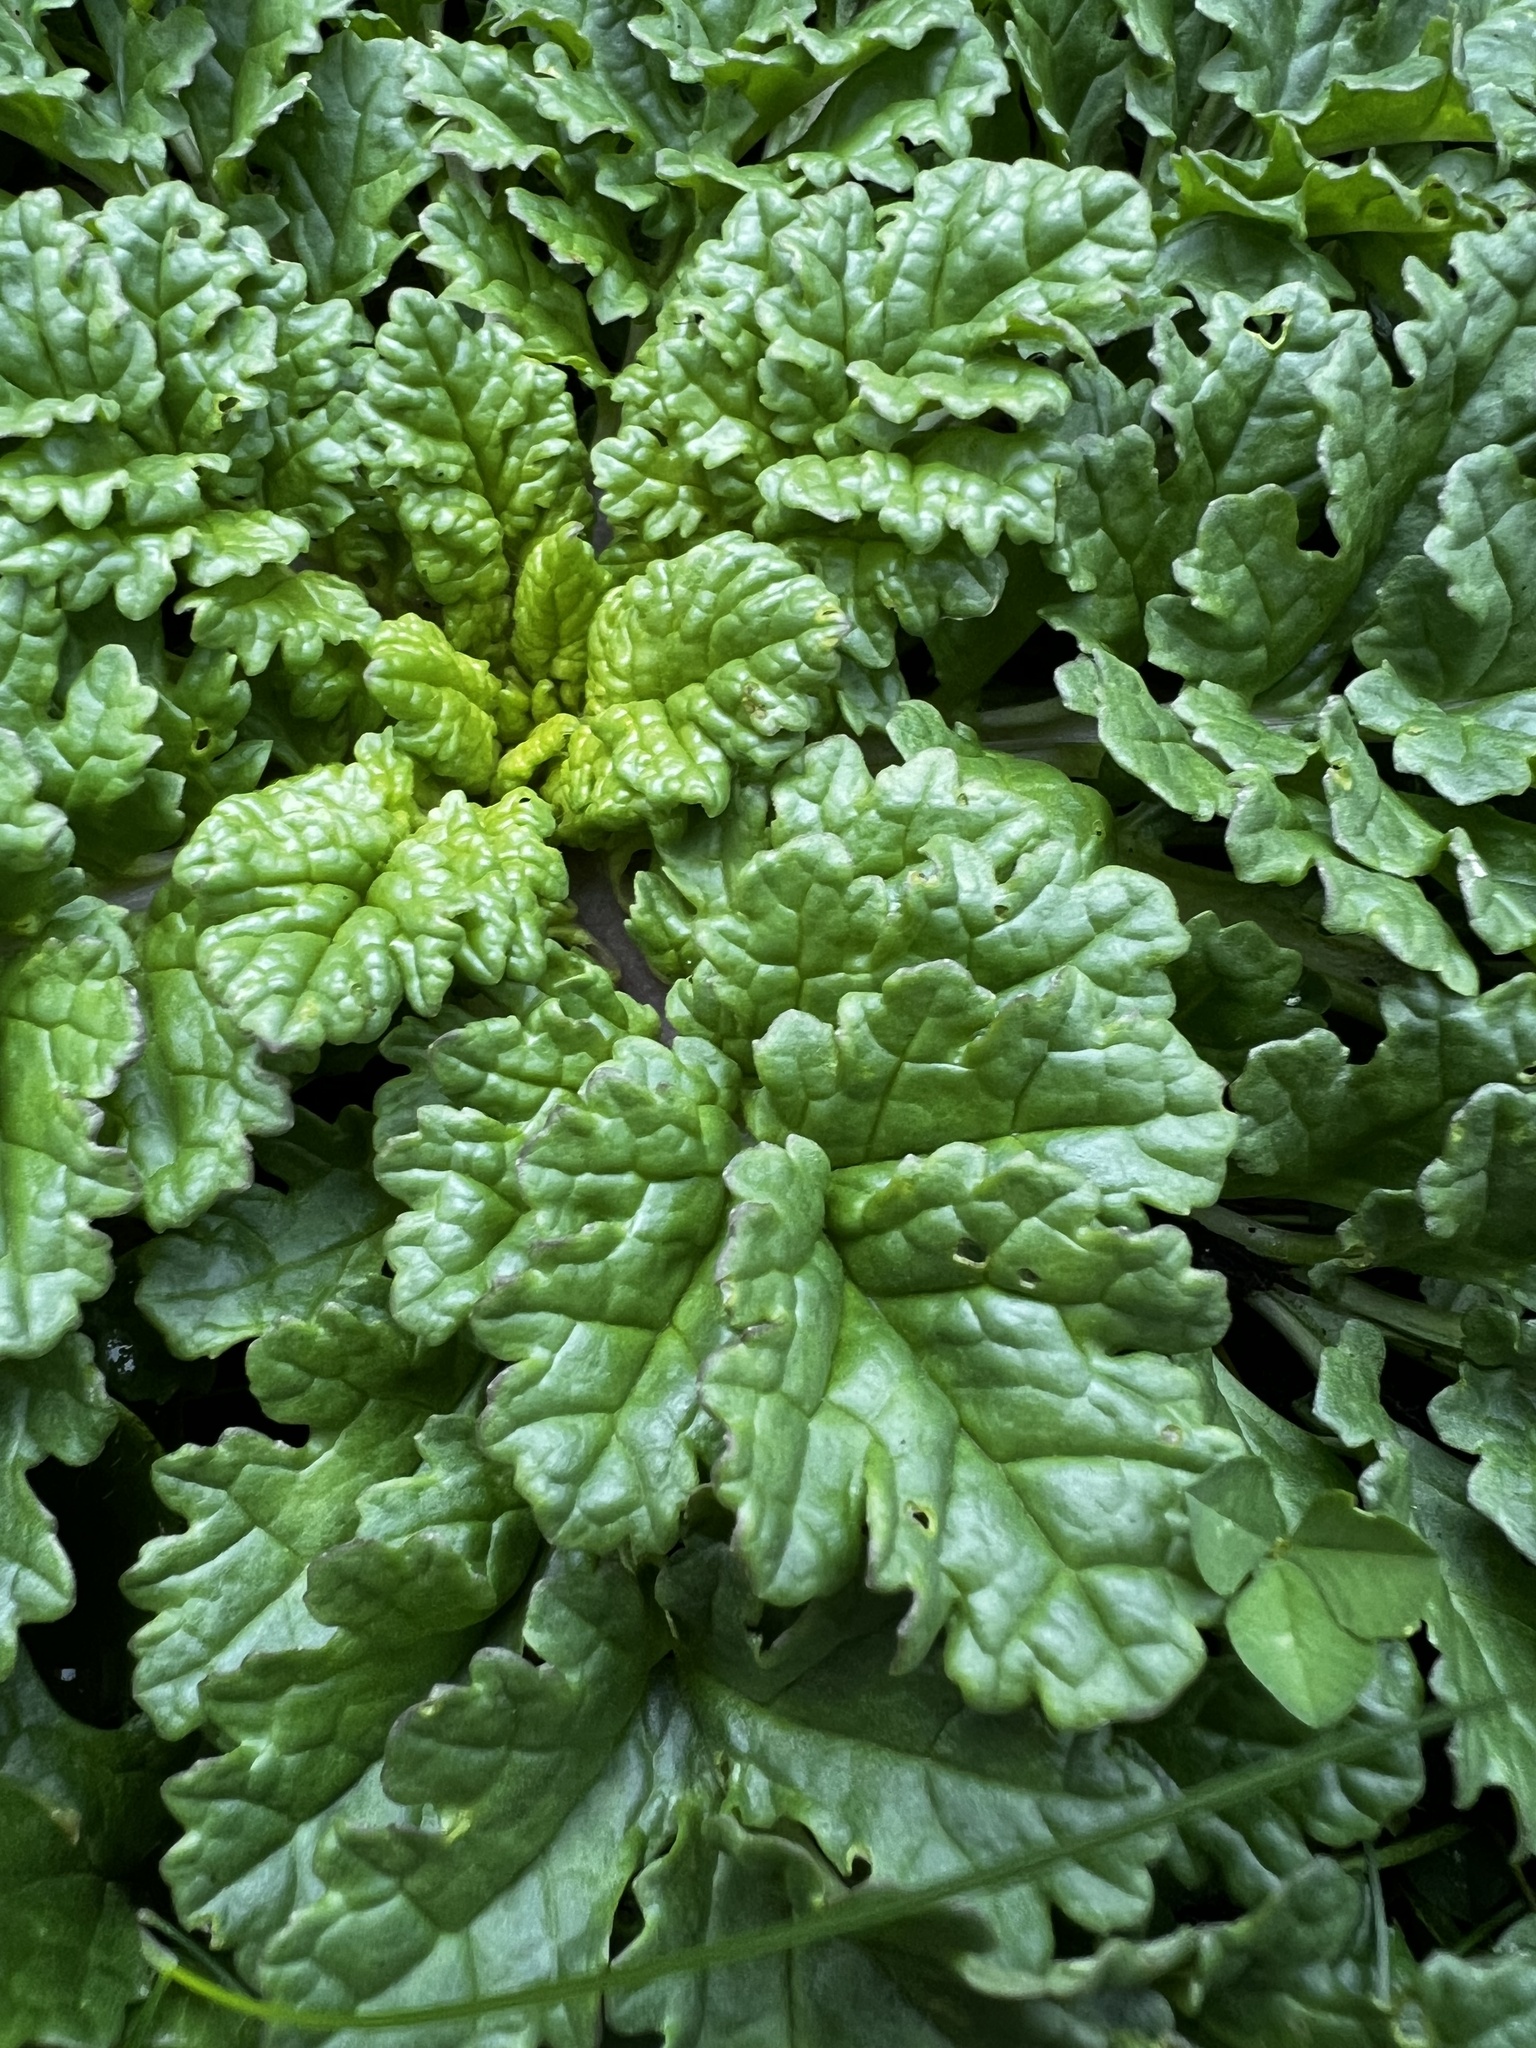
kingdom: Plantae
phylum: Tracheophyta
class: Magnoliopsida
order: Asterales
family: Asteraceae
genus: Jacobaea
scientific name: Jacobaea vulgaris
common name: Stinking willie
